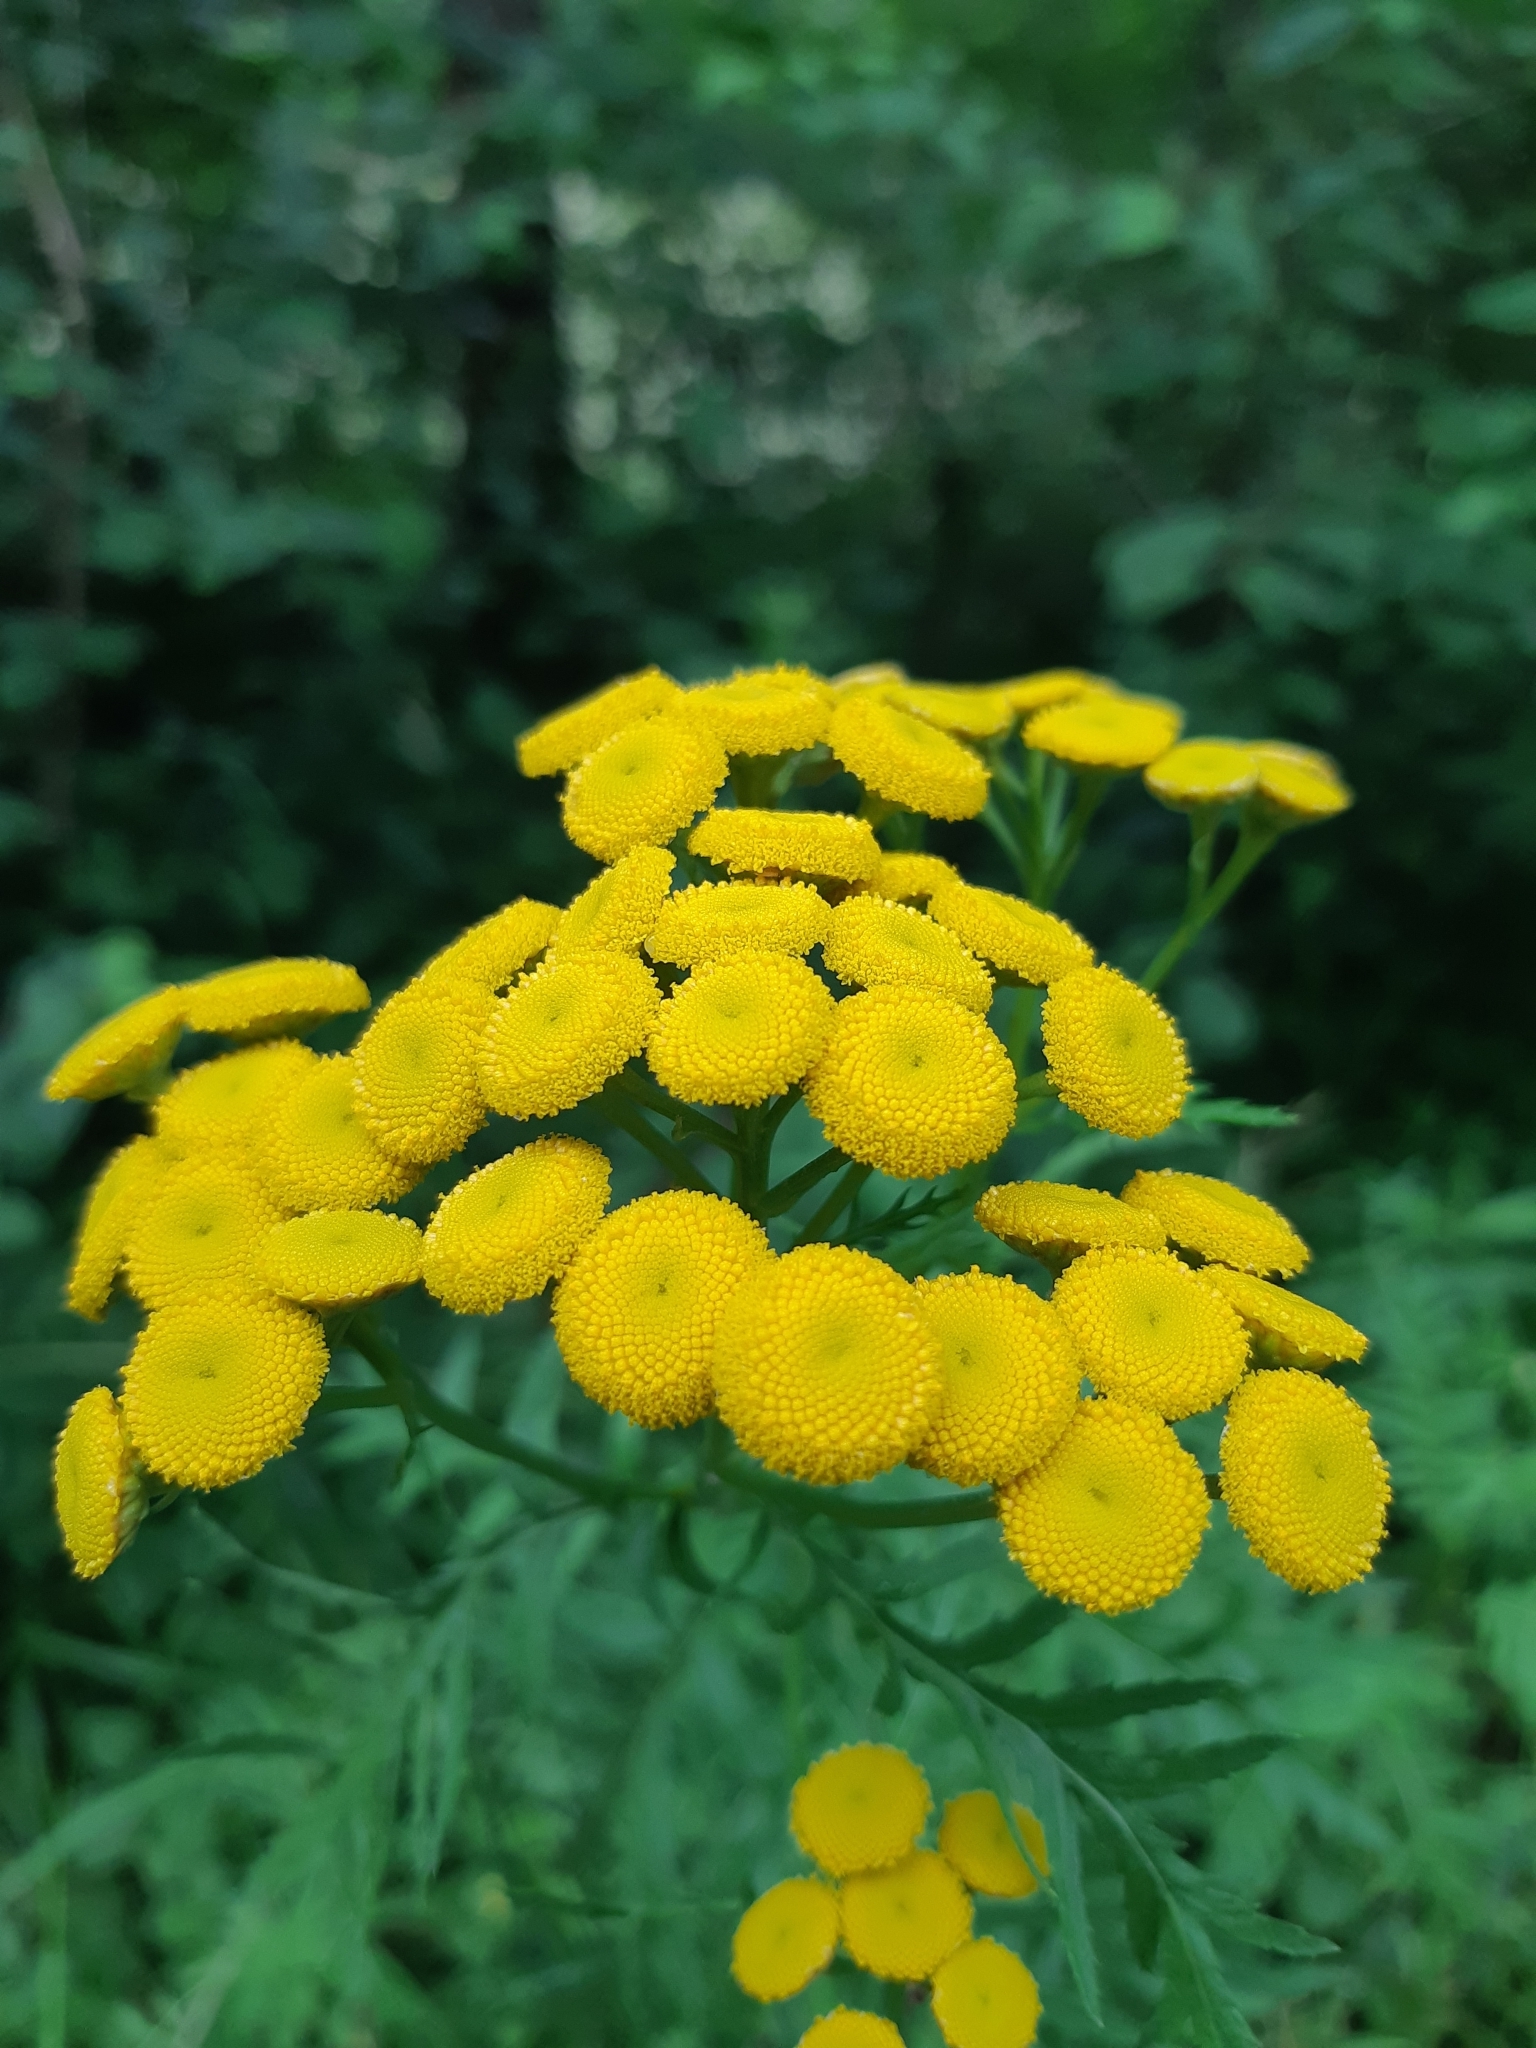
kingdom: Plantae
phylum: Tracheophyta
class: Magnoliopsida
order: Asterales
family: Asteraceae
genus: Tanacetum
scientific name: Tanacetum vulgare
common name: Common tansy
